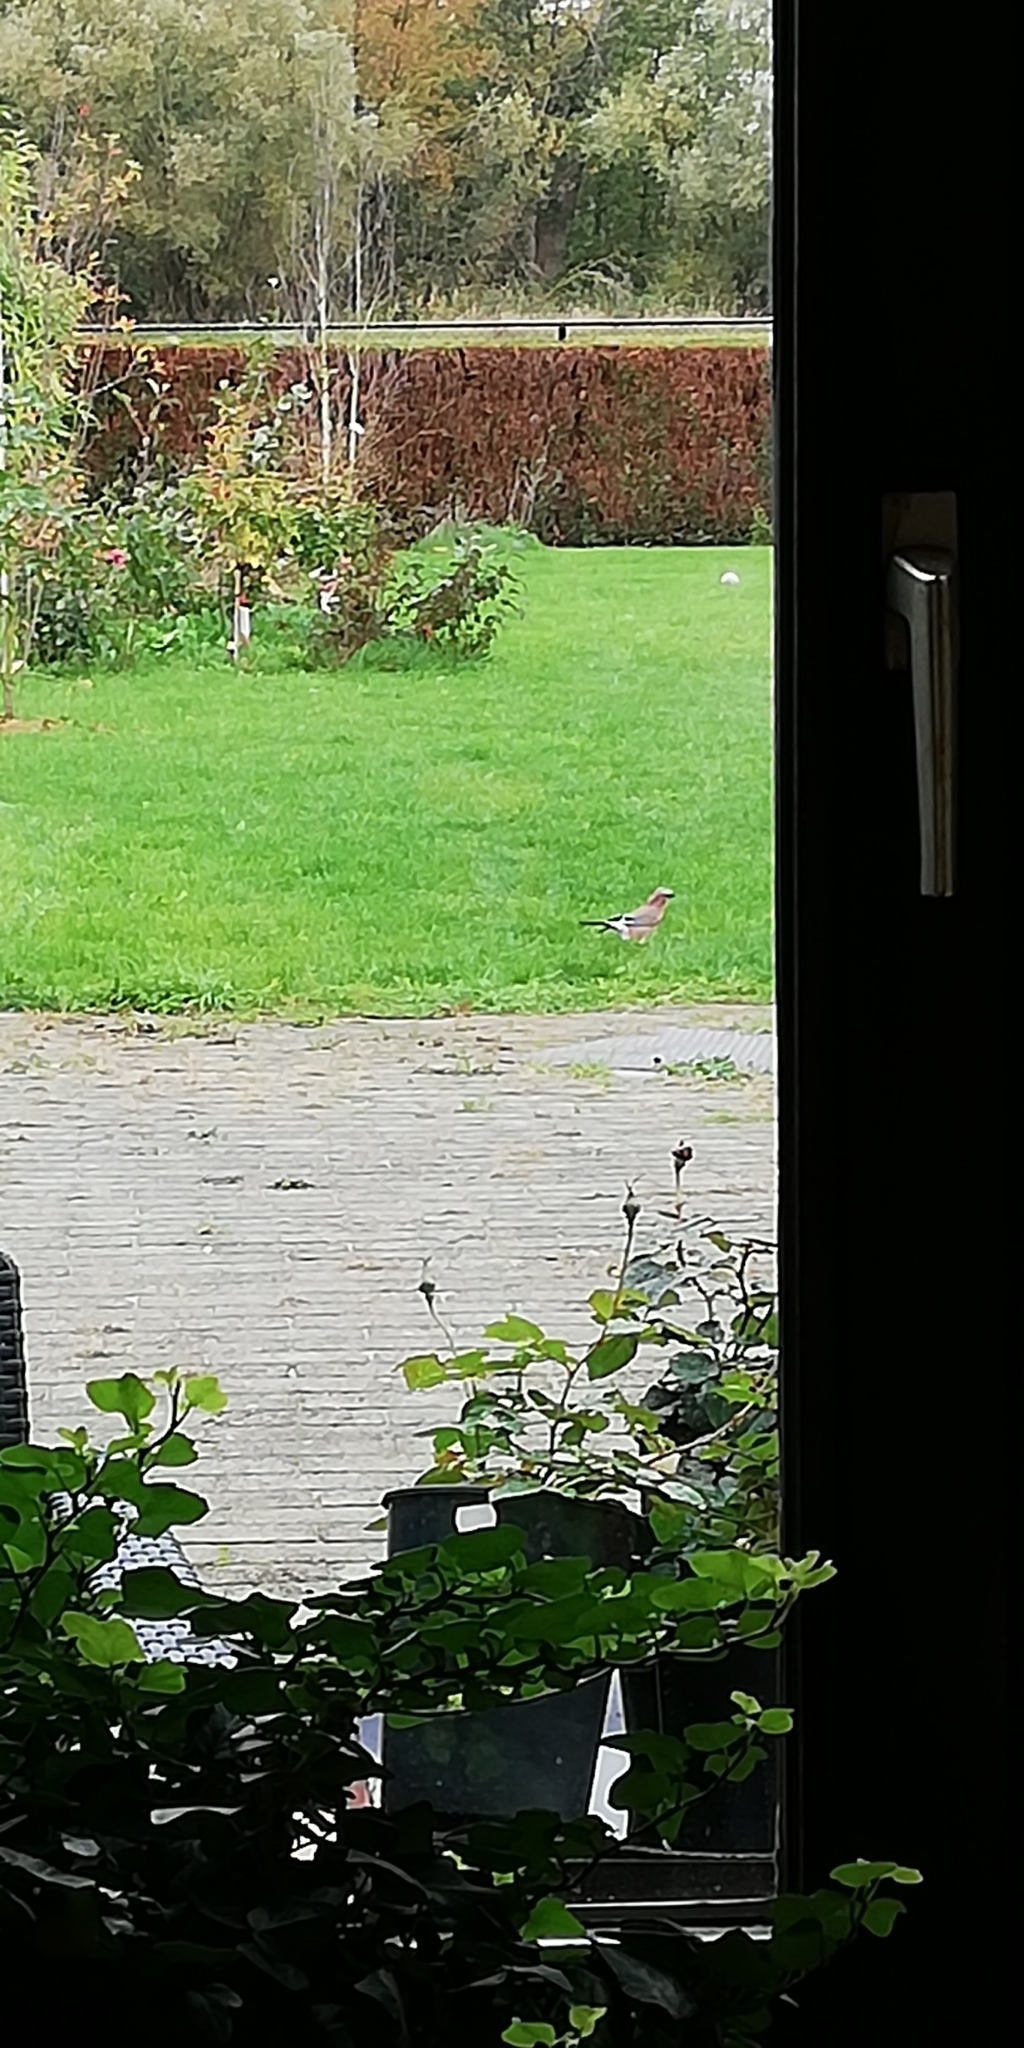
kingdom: Animalia
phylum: Chordata
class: Aves
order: Passeriformes
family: Corvidae
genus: Garrulus
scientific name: Garrulus glandarius
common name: Eurasian jay
